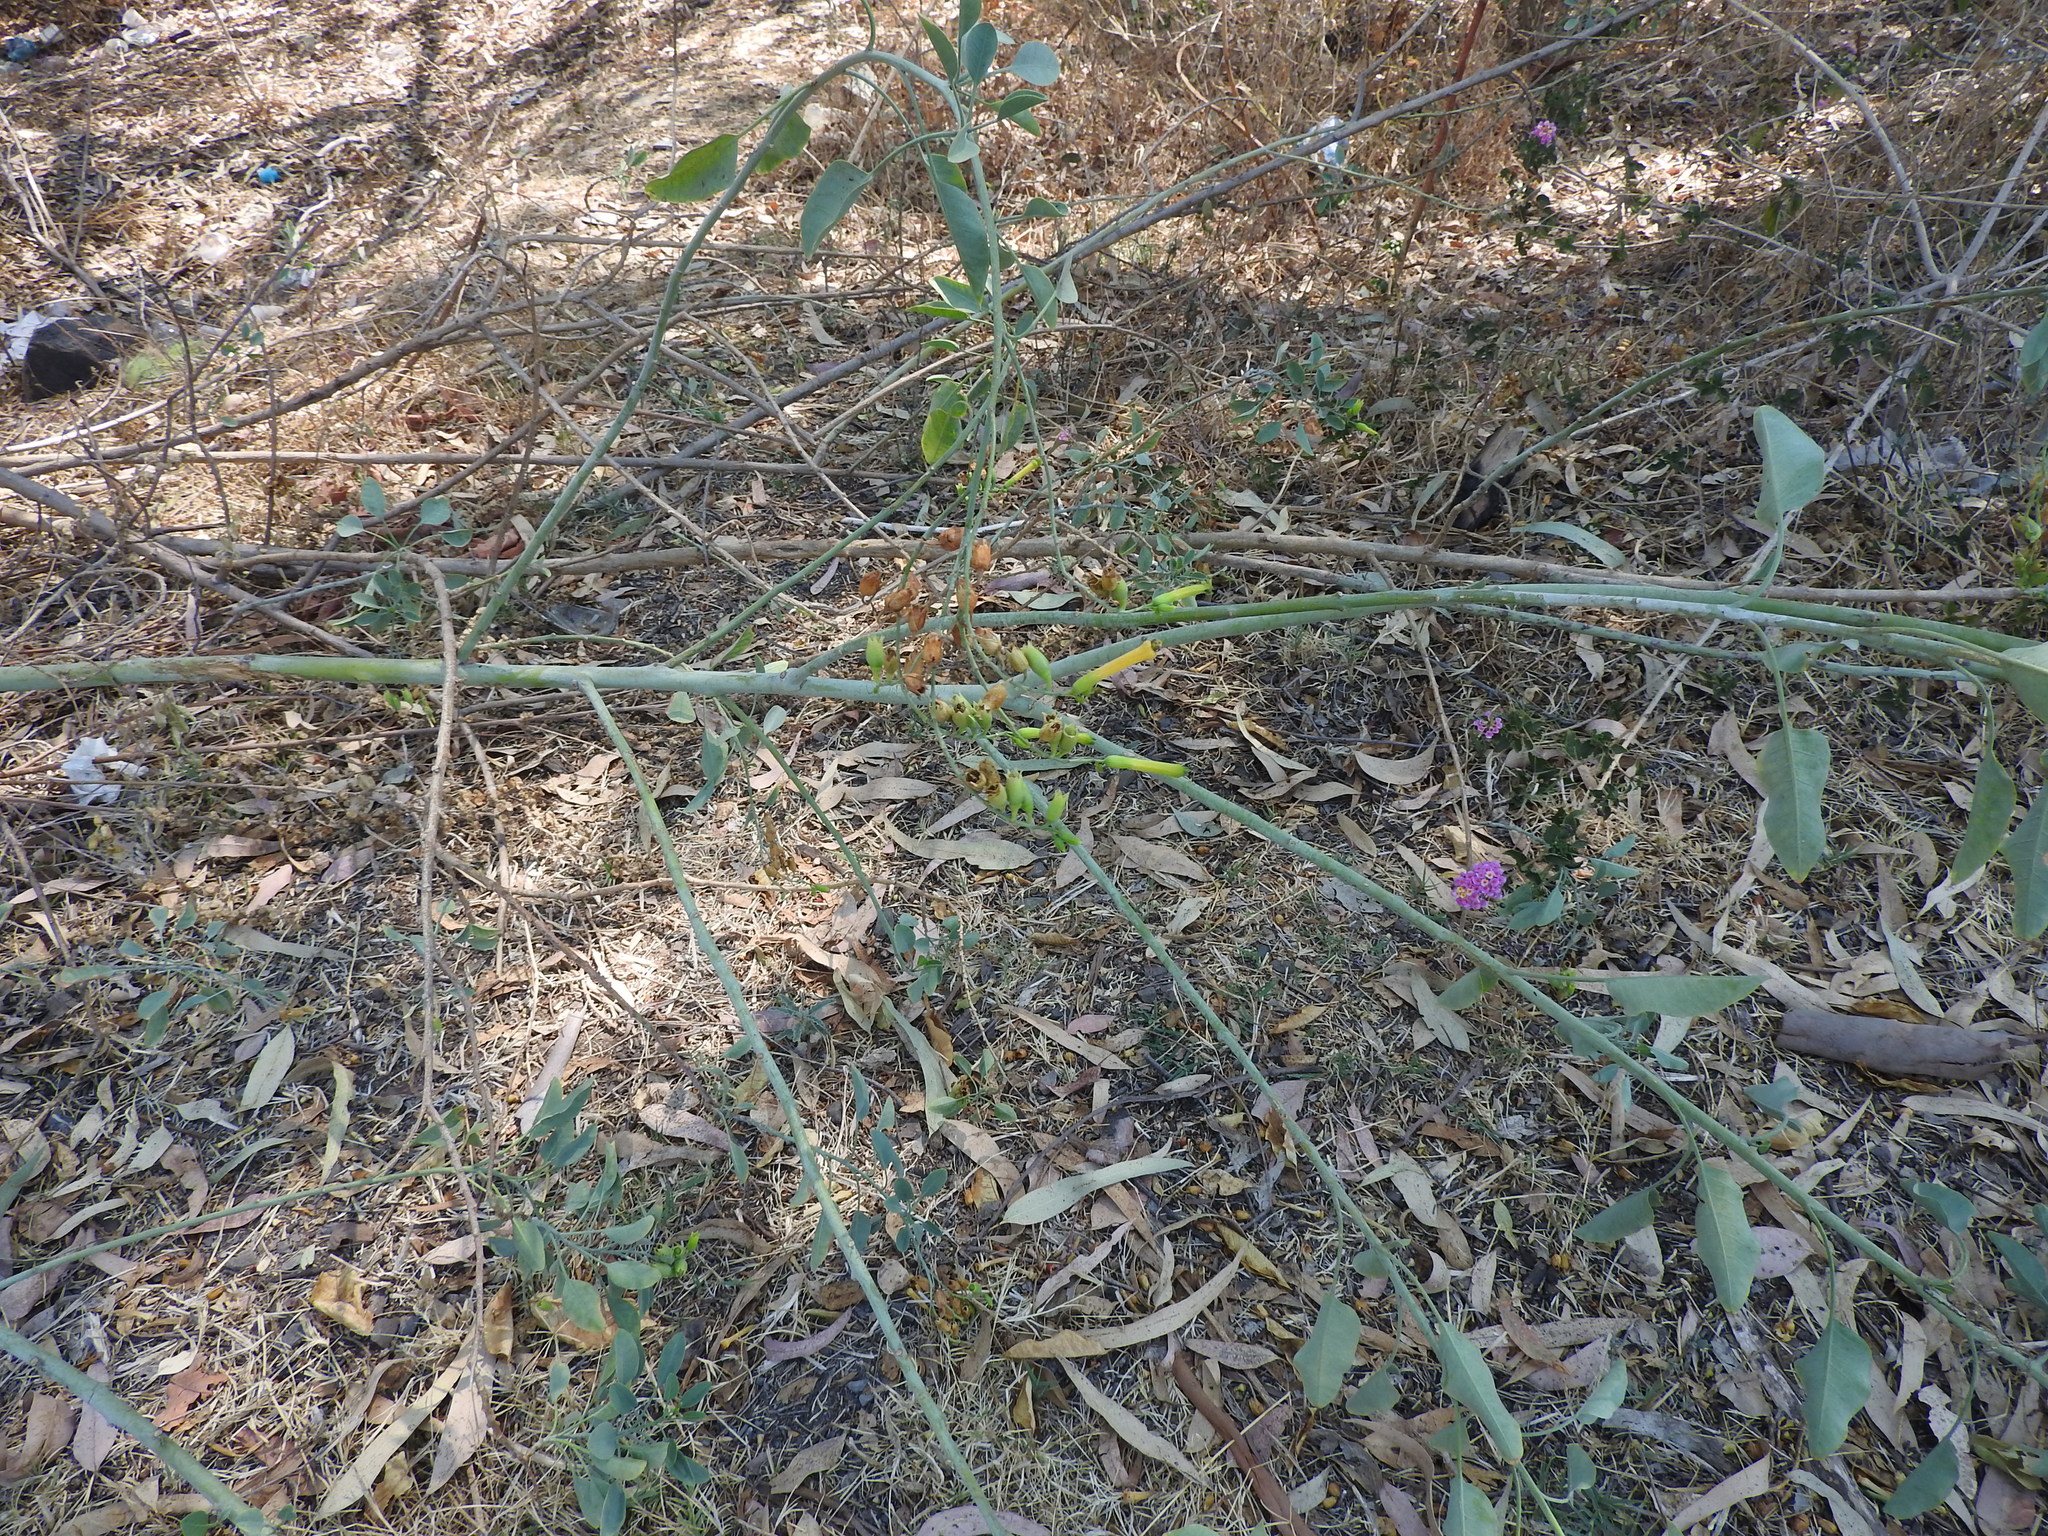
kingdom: Plantae
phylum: Tracheophyta
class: Magnoliopsida
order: Solanales
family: Solanaceae
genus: Nicotiana
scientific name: Nicotiana glauca
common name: Tree tobacco
